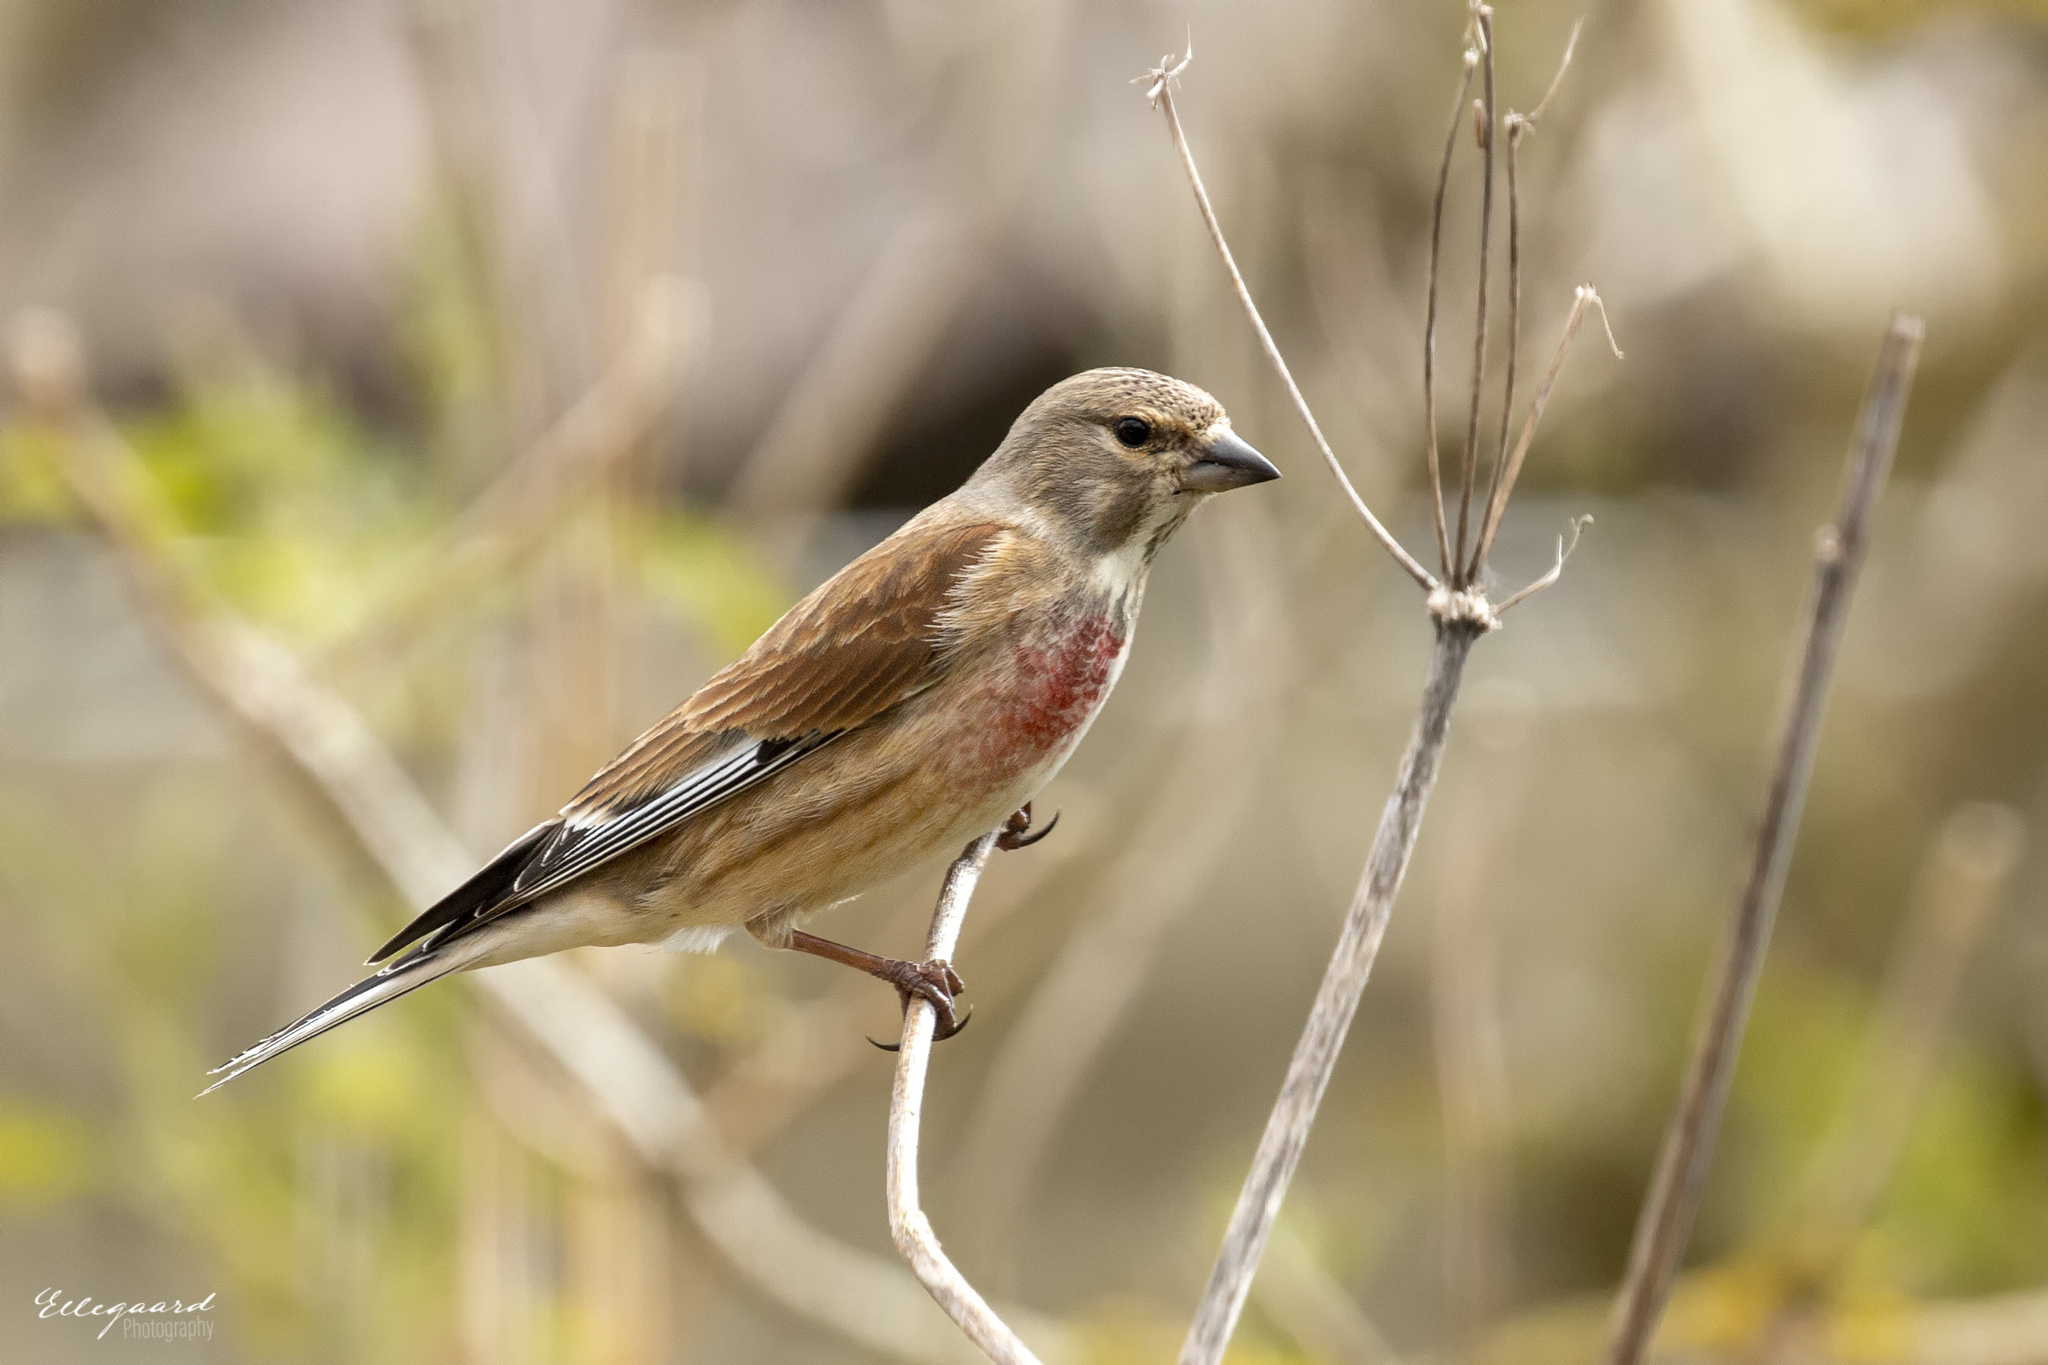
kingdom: Animalia
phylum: Chordata
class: Aves
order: Passeriformes
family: Fringillidae
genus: Linaria
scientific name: Linaria cannabina
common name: Common linnet
